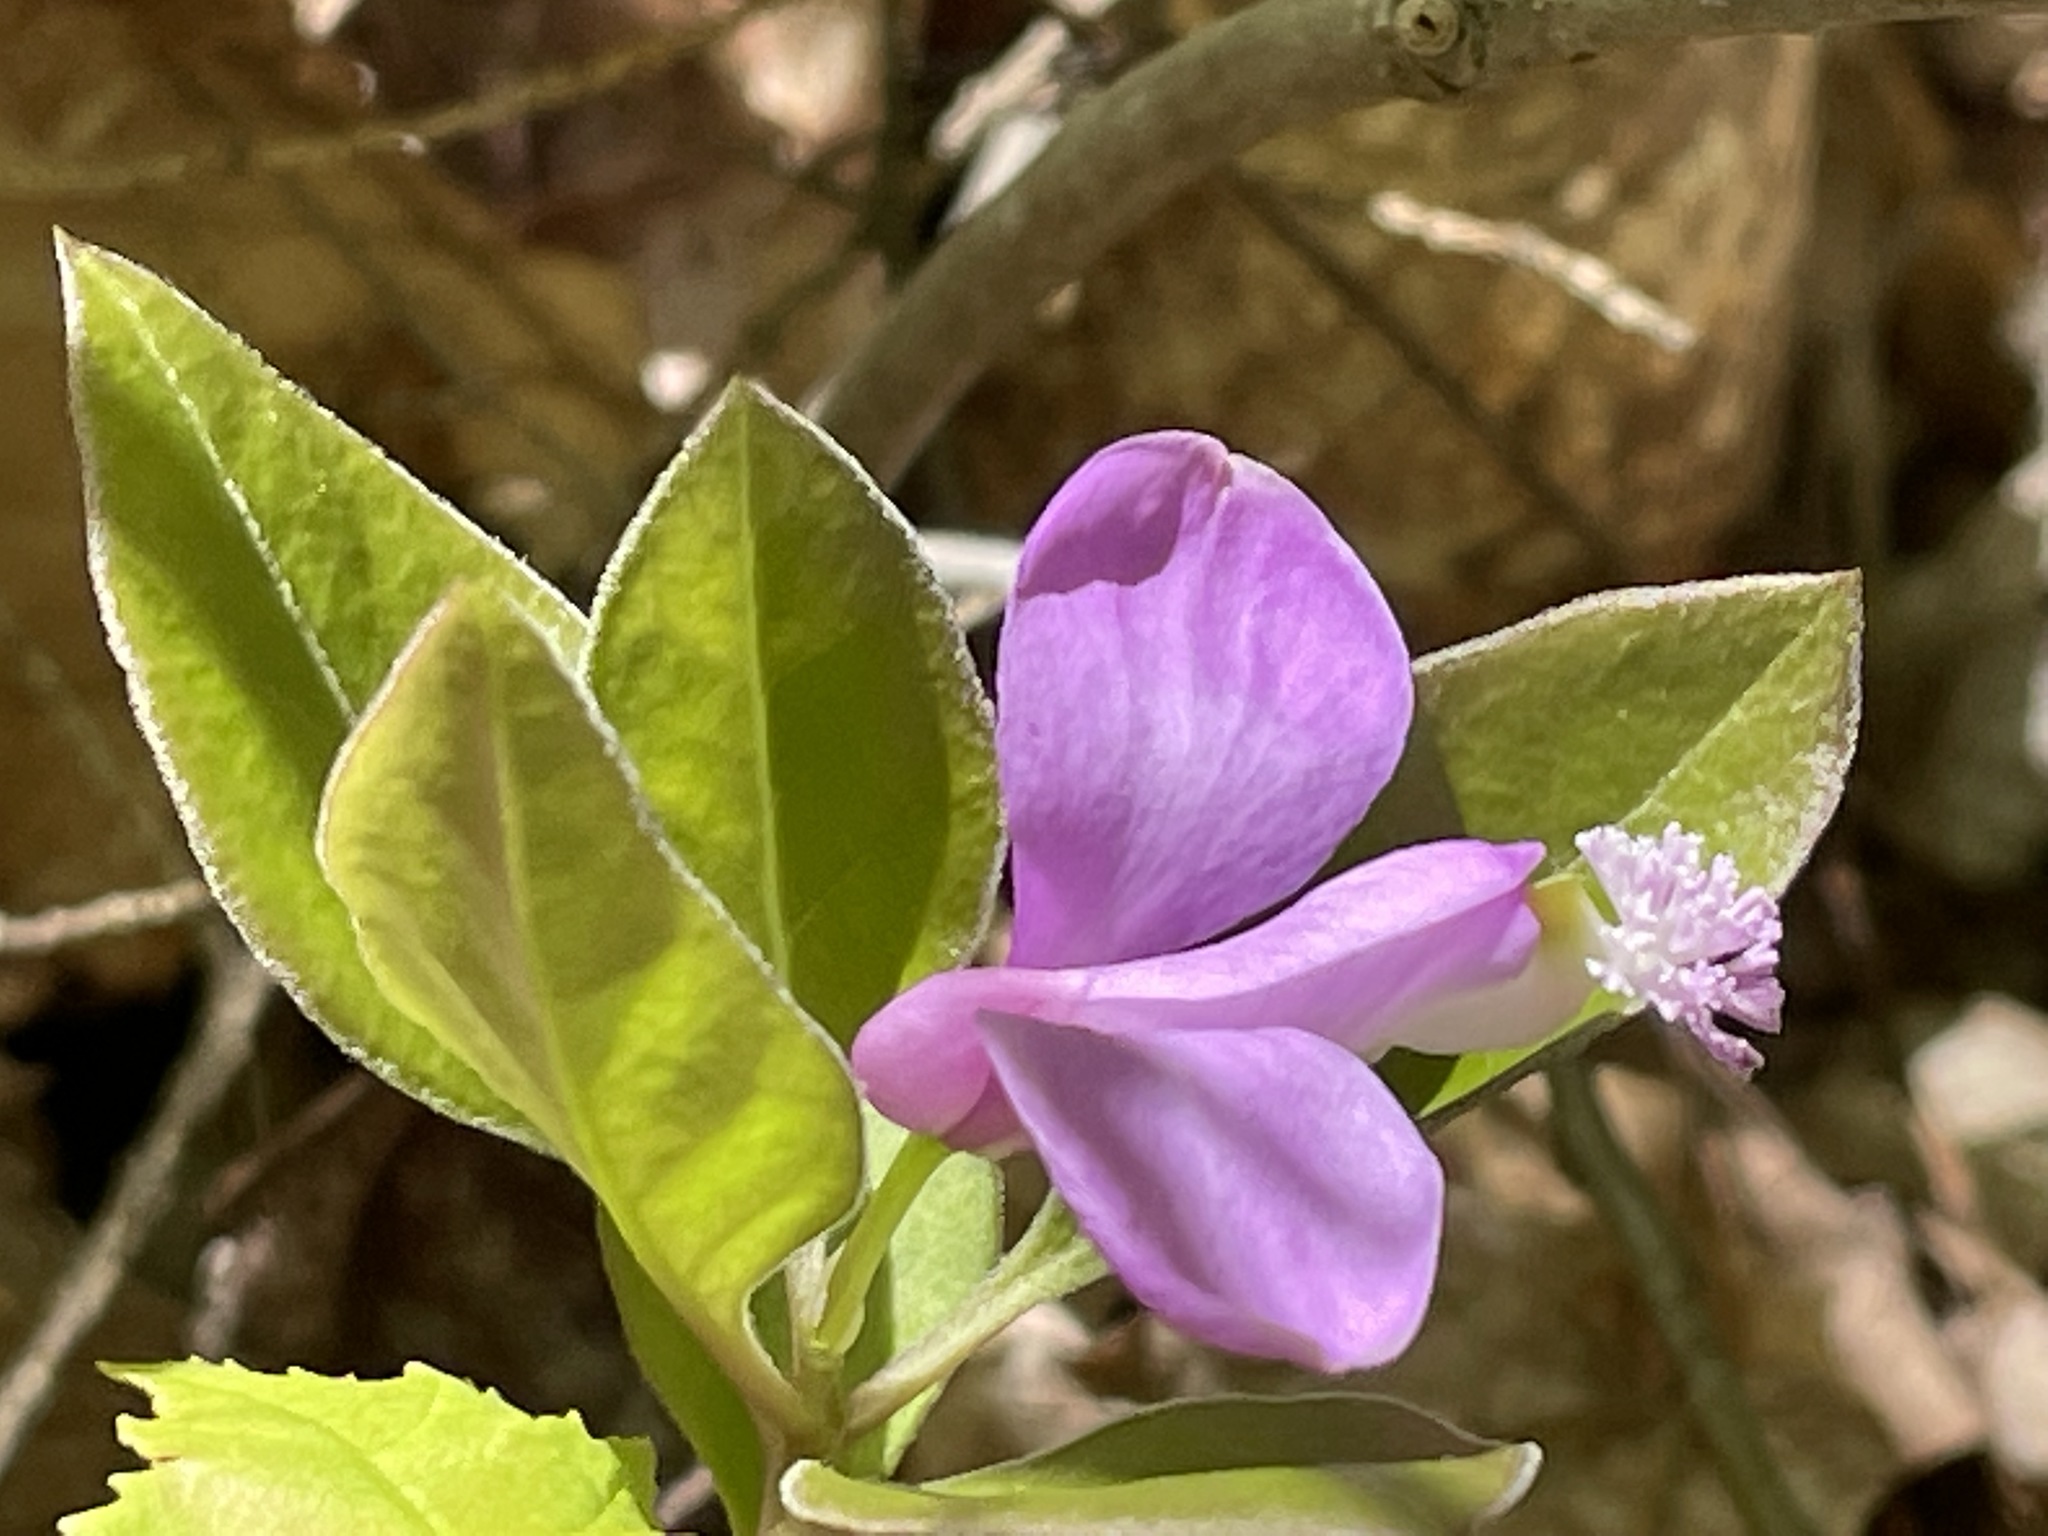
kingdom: Plantae
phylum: Tracheophyta
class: Magnoliopsida
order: Fabales
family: Polygalaceae
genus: Polygaloides
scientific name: Polygaloides paucifolia
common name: Bird-on-the-wing
